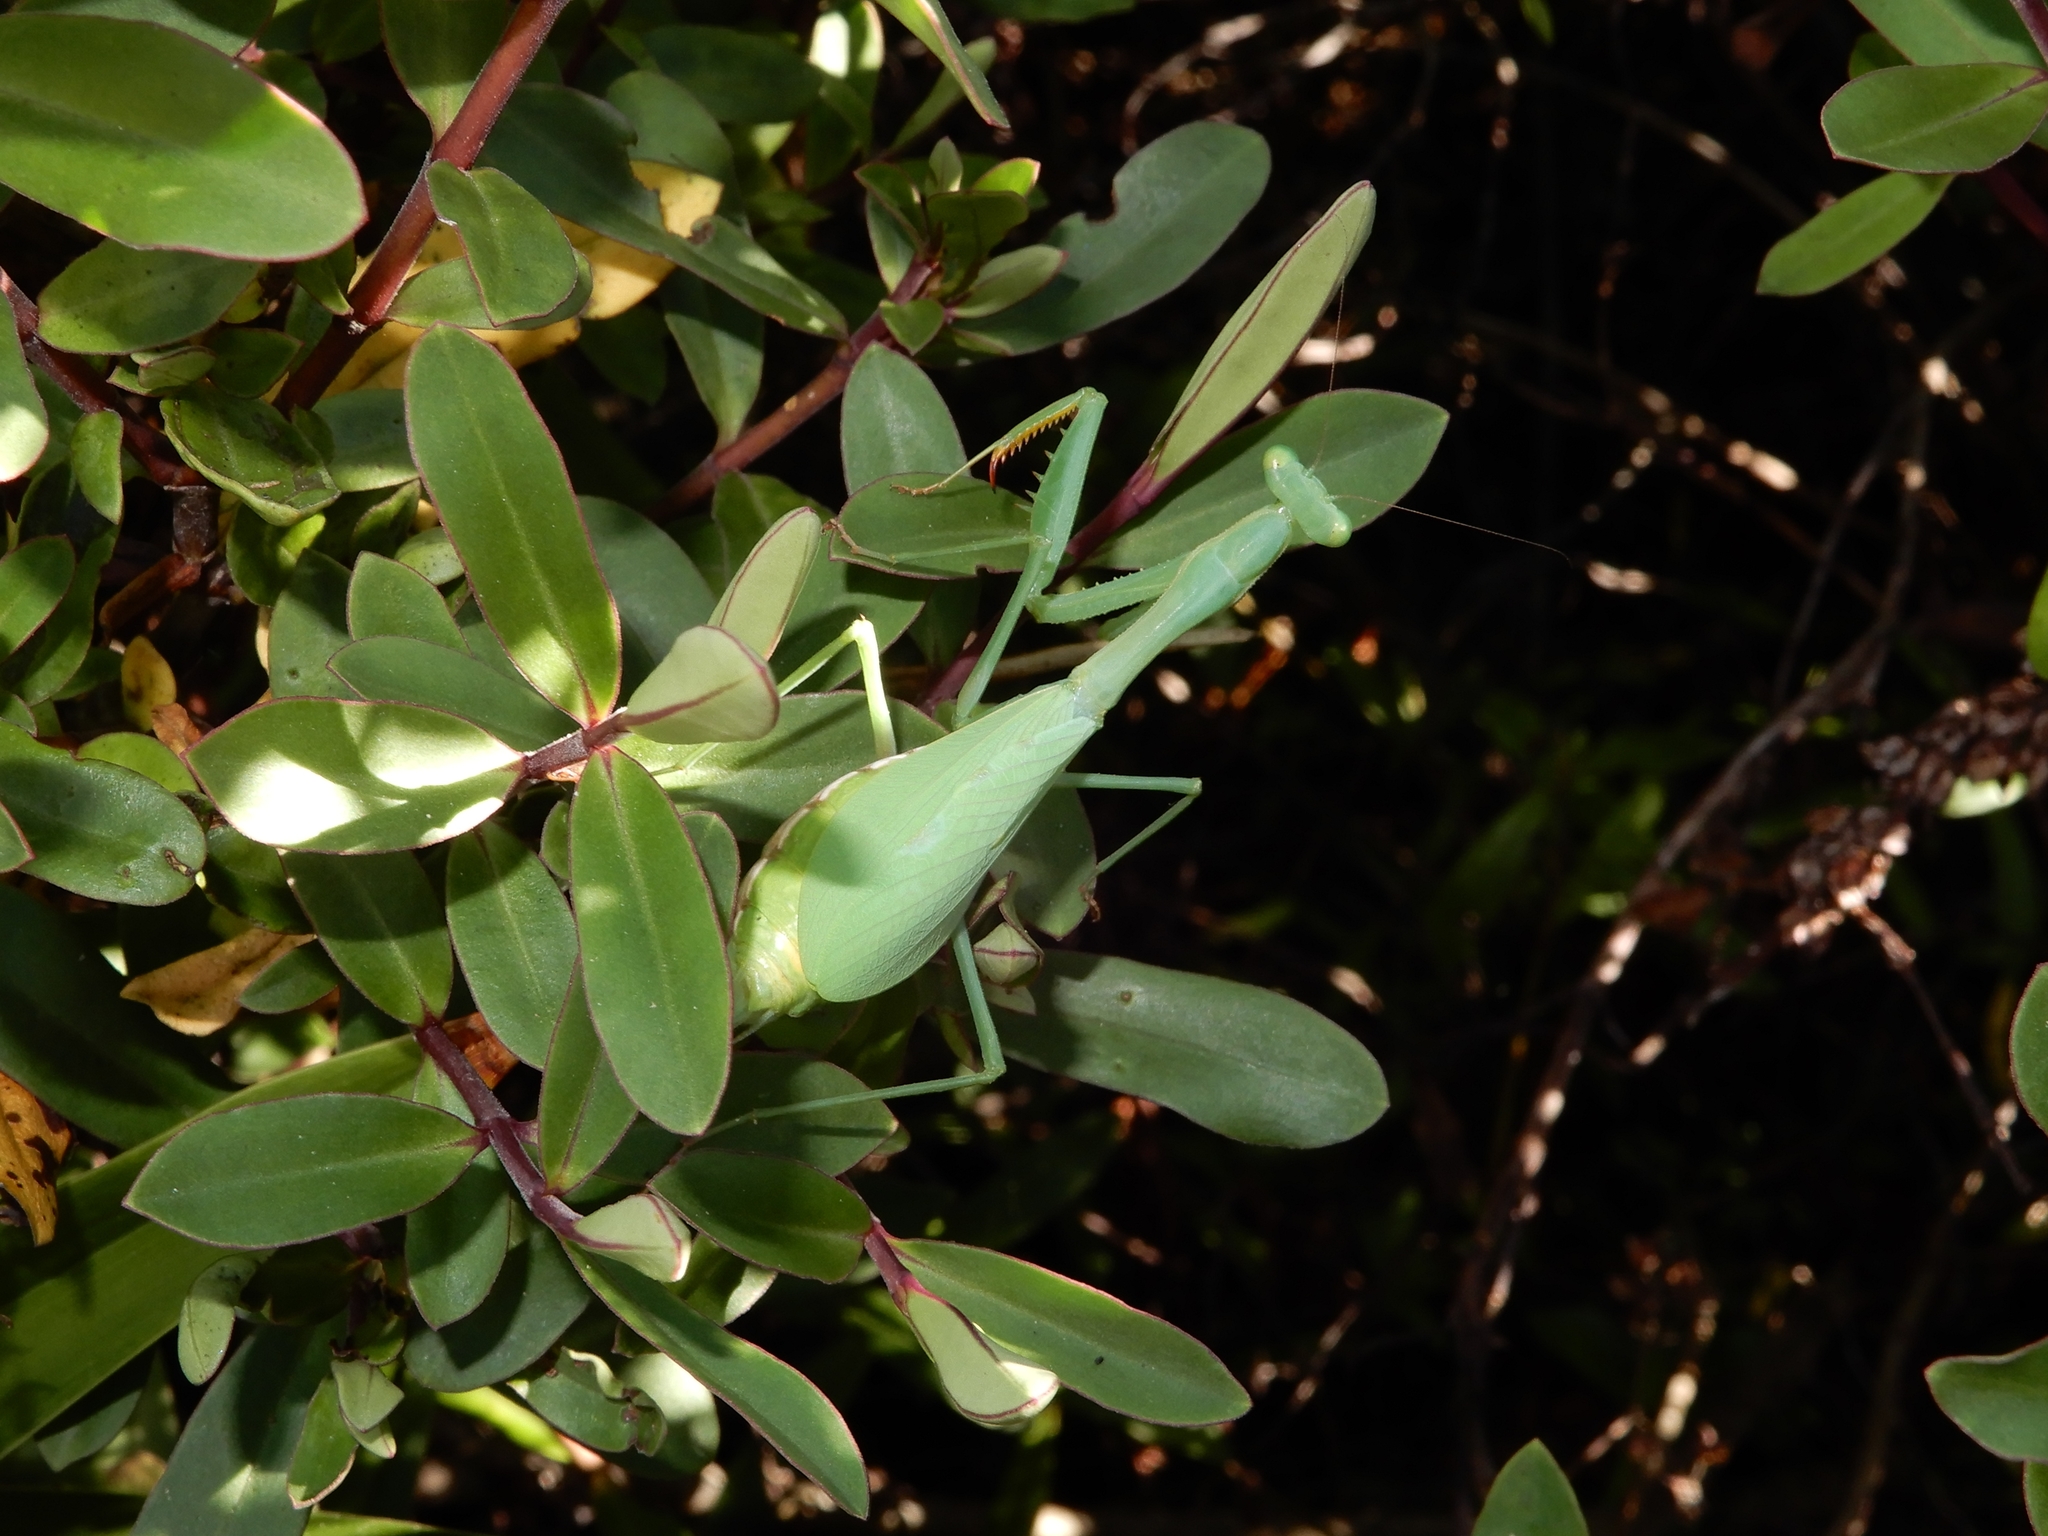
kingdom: Animalia
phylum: Arthropoda
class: Insecta
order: Mantodea
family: Miomantidae
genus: Miomantis
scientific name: Miomantis caffra
